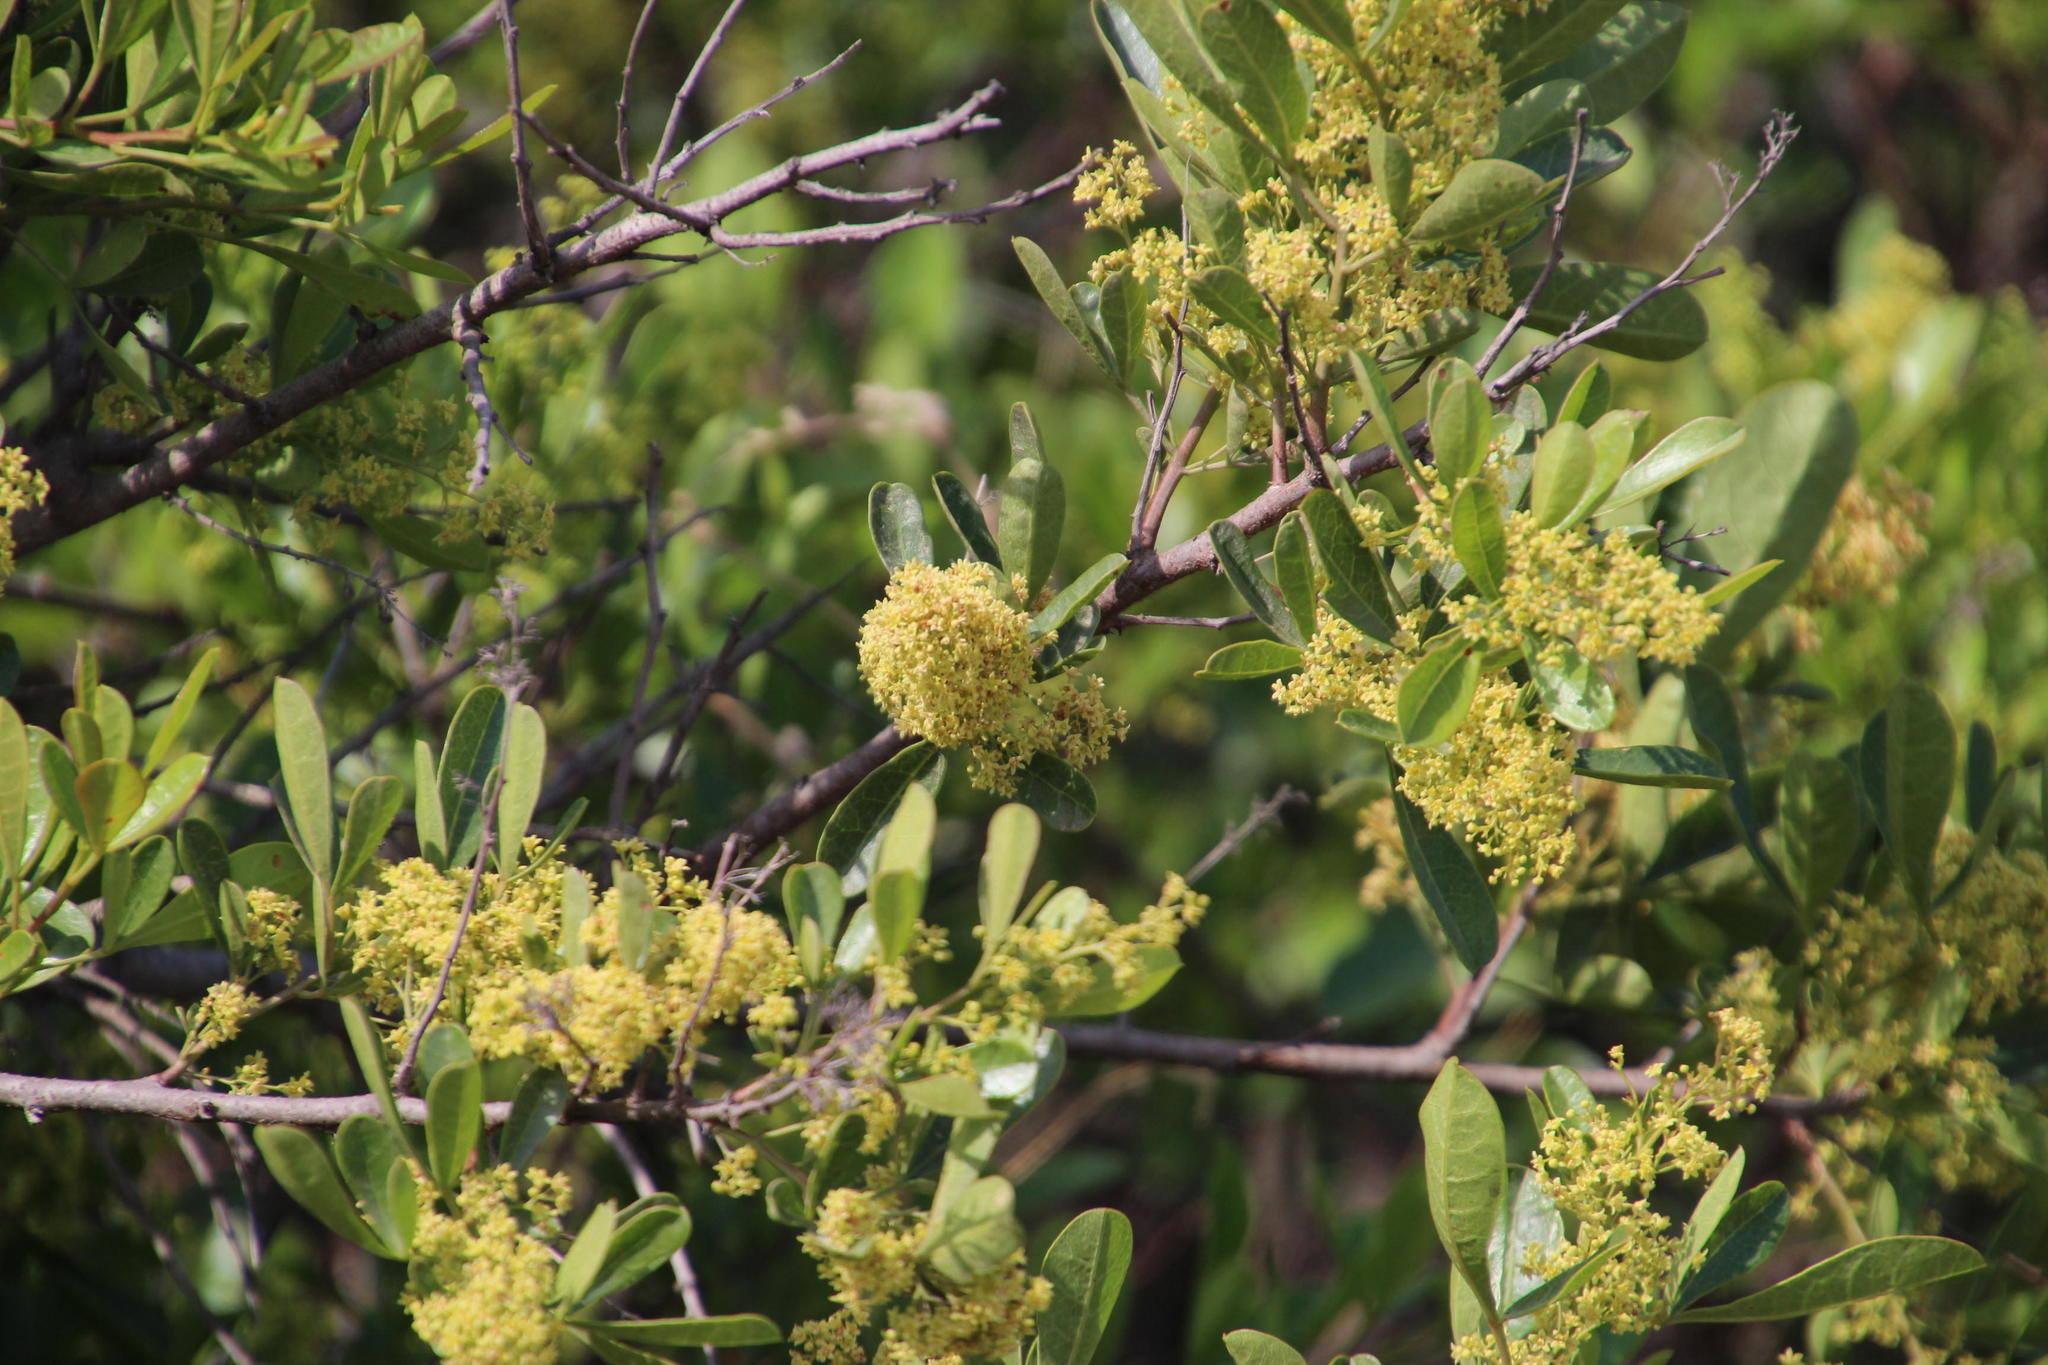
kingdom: Plantae
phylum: Tracheophyta
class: Magnoliopsida
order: Sapindales
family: Anacardiaceae
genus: Searsia
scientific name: Searsia laevigata
